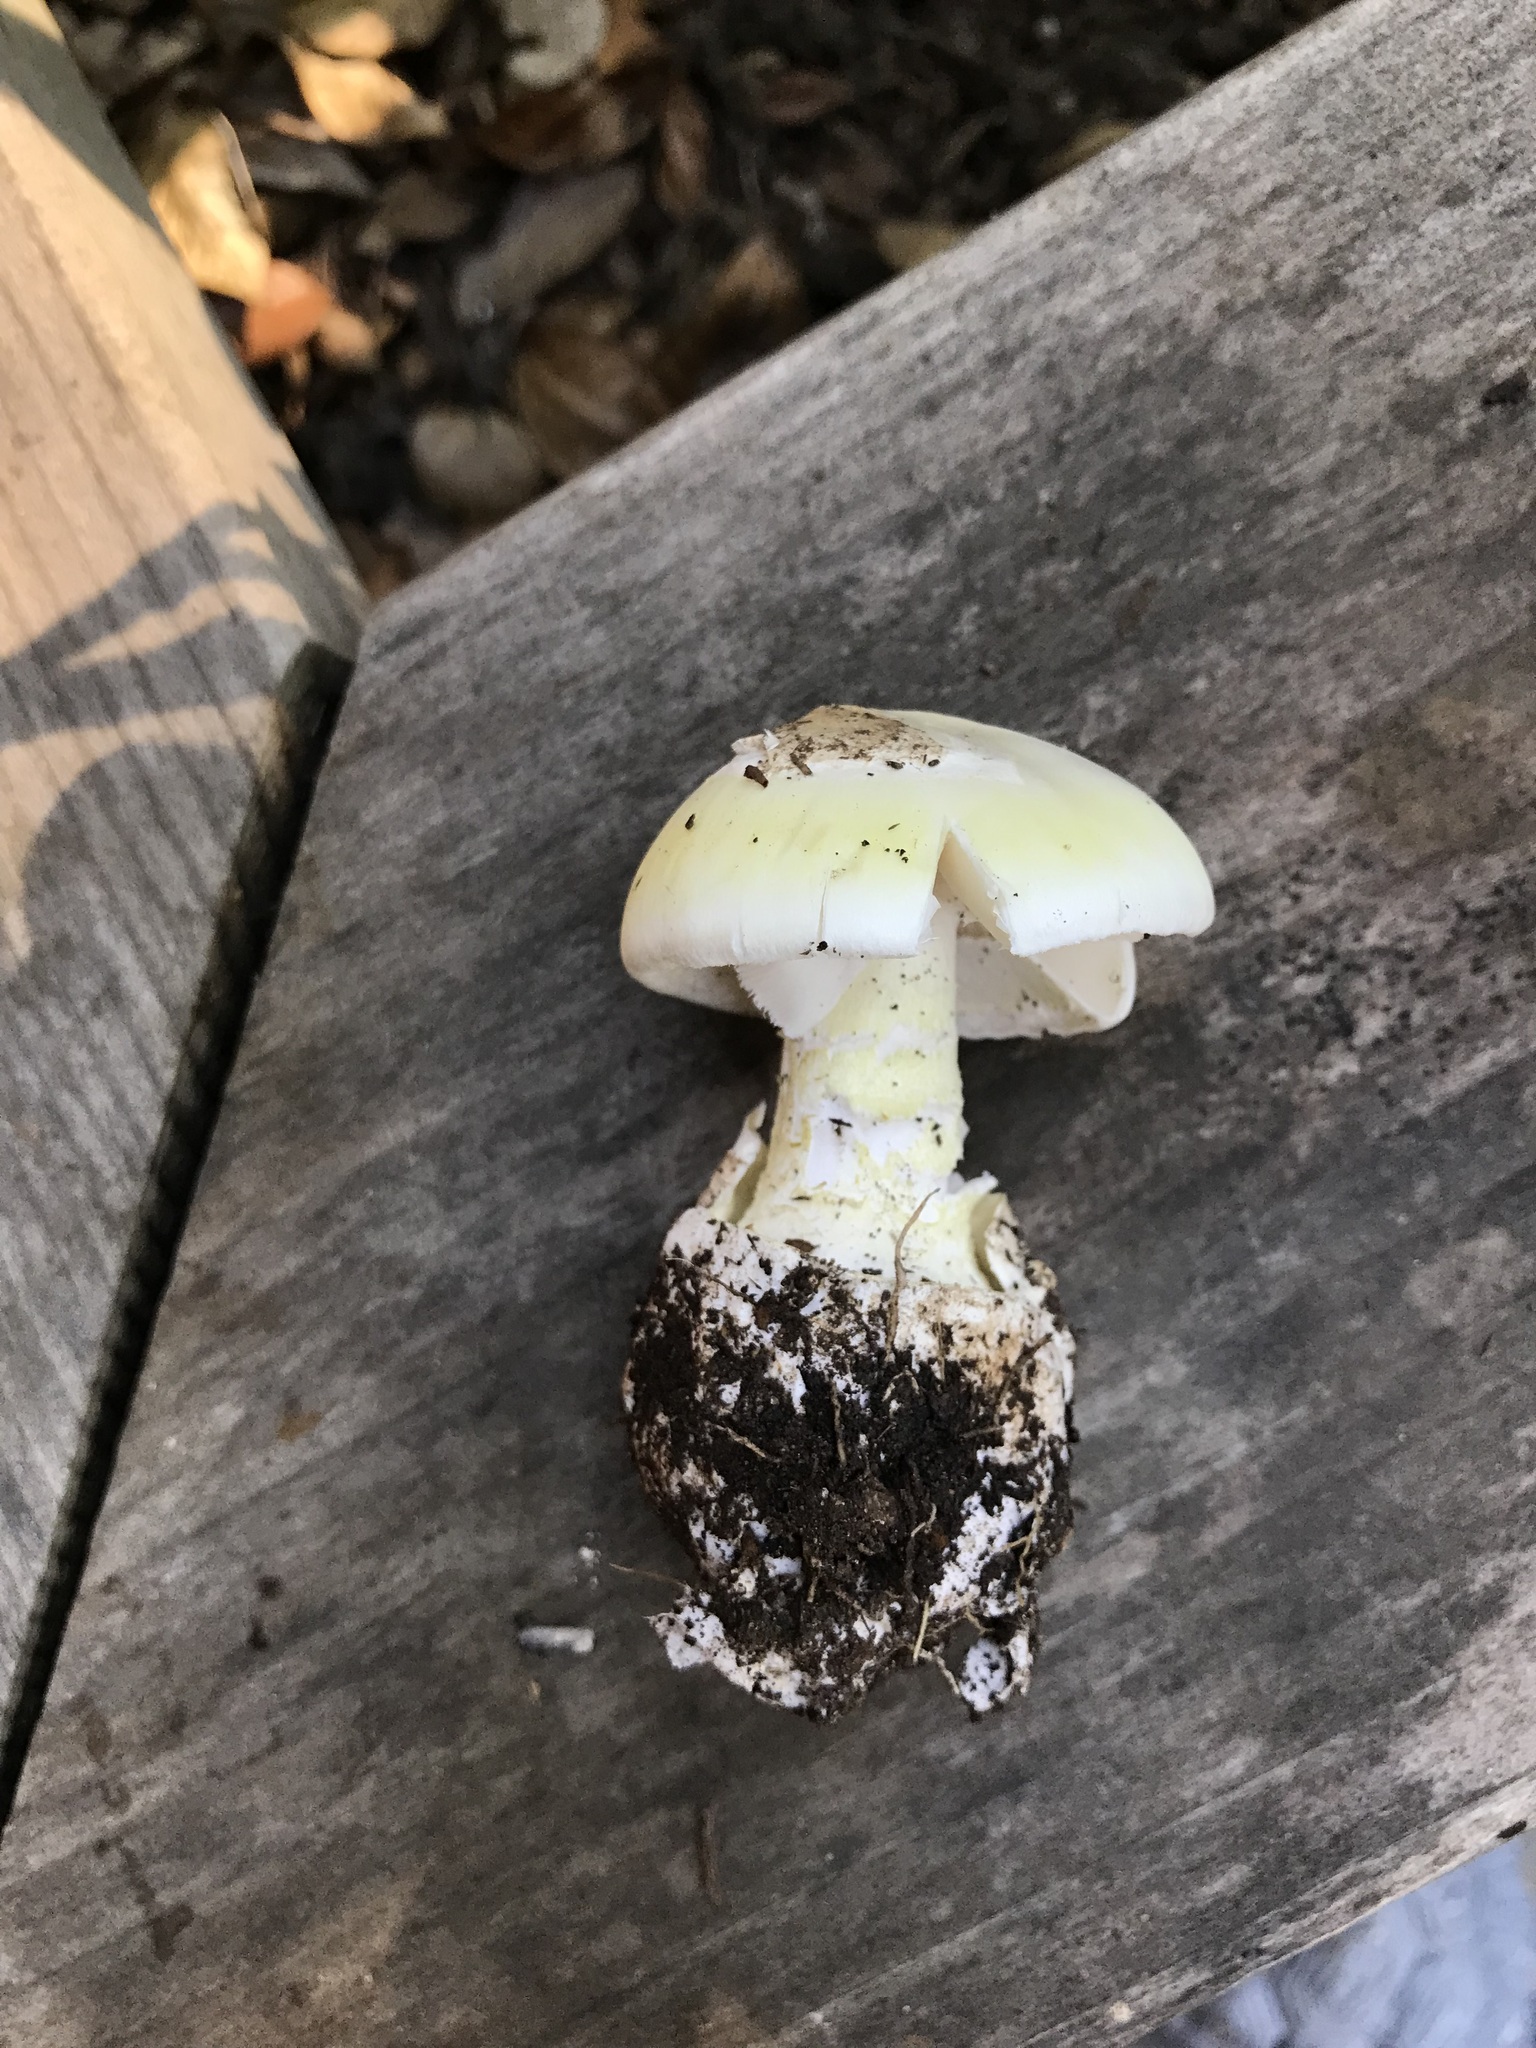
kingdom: Fungi
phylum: Basidiomycota
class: Agaricomycetes
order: Agaricales
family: Amanitaceae
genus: Amanita
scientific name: Amanita phalloides
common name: Death cap
